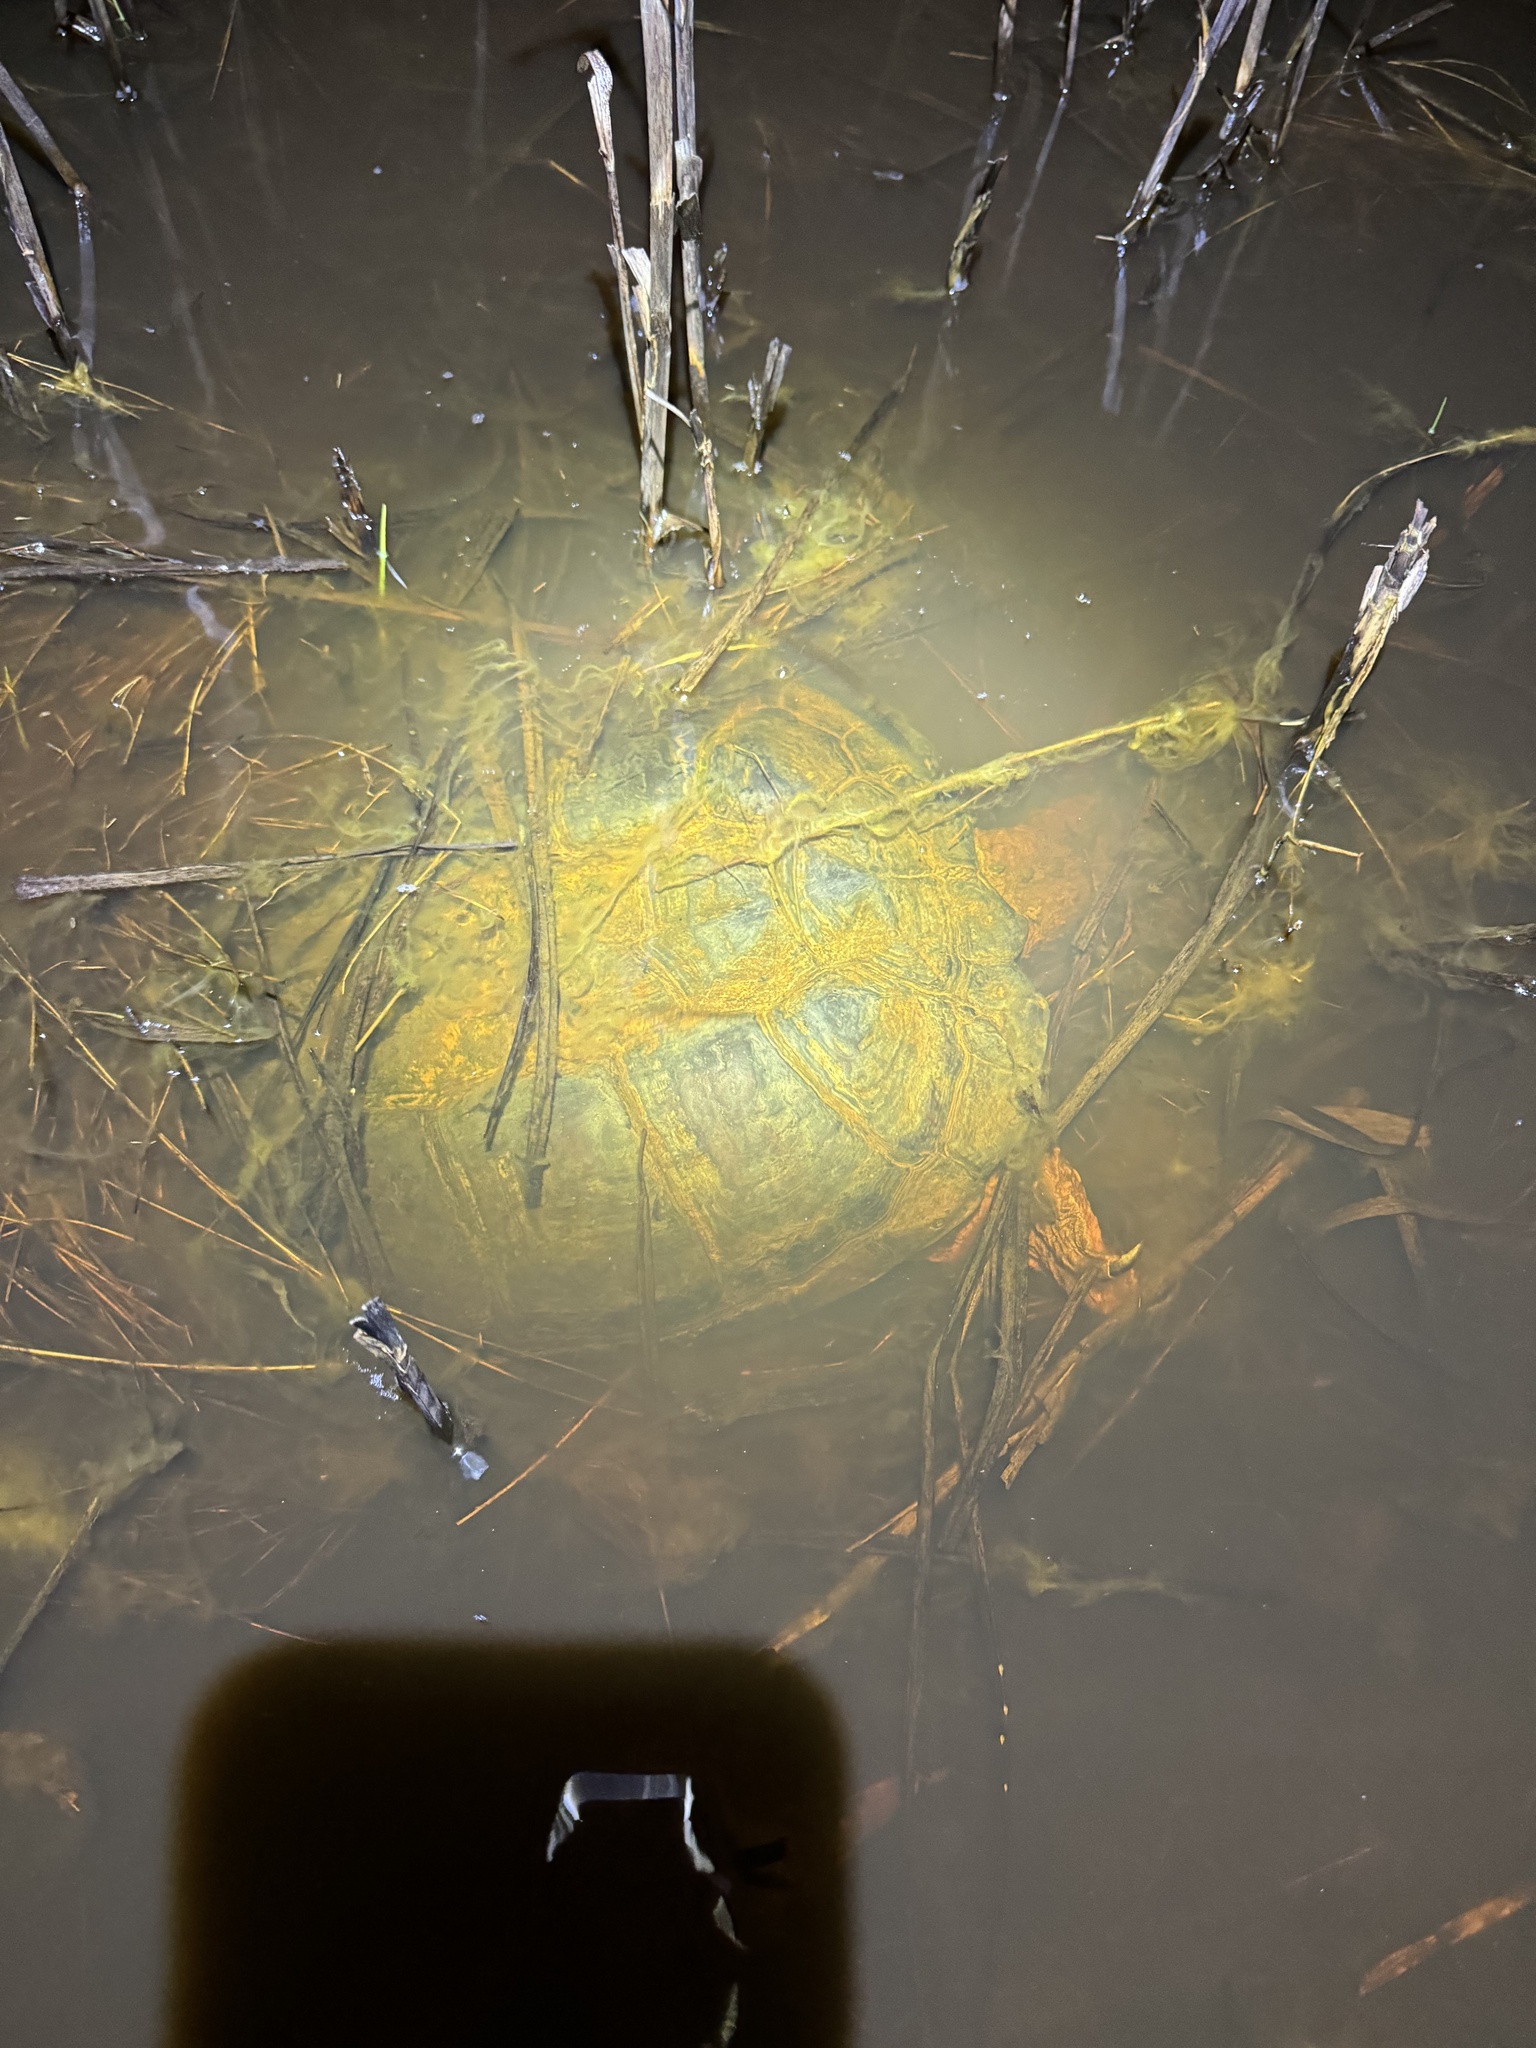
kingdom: Animalia
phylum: Chordata
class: Testudines
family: Chelydridae
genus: Chelydra
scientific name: Chelydra serpentina
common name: Common snapping turtle
